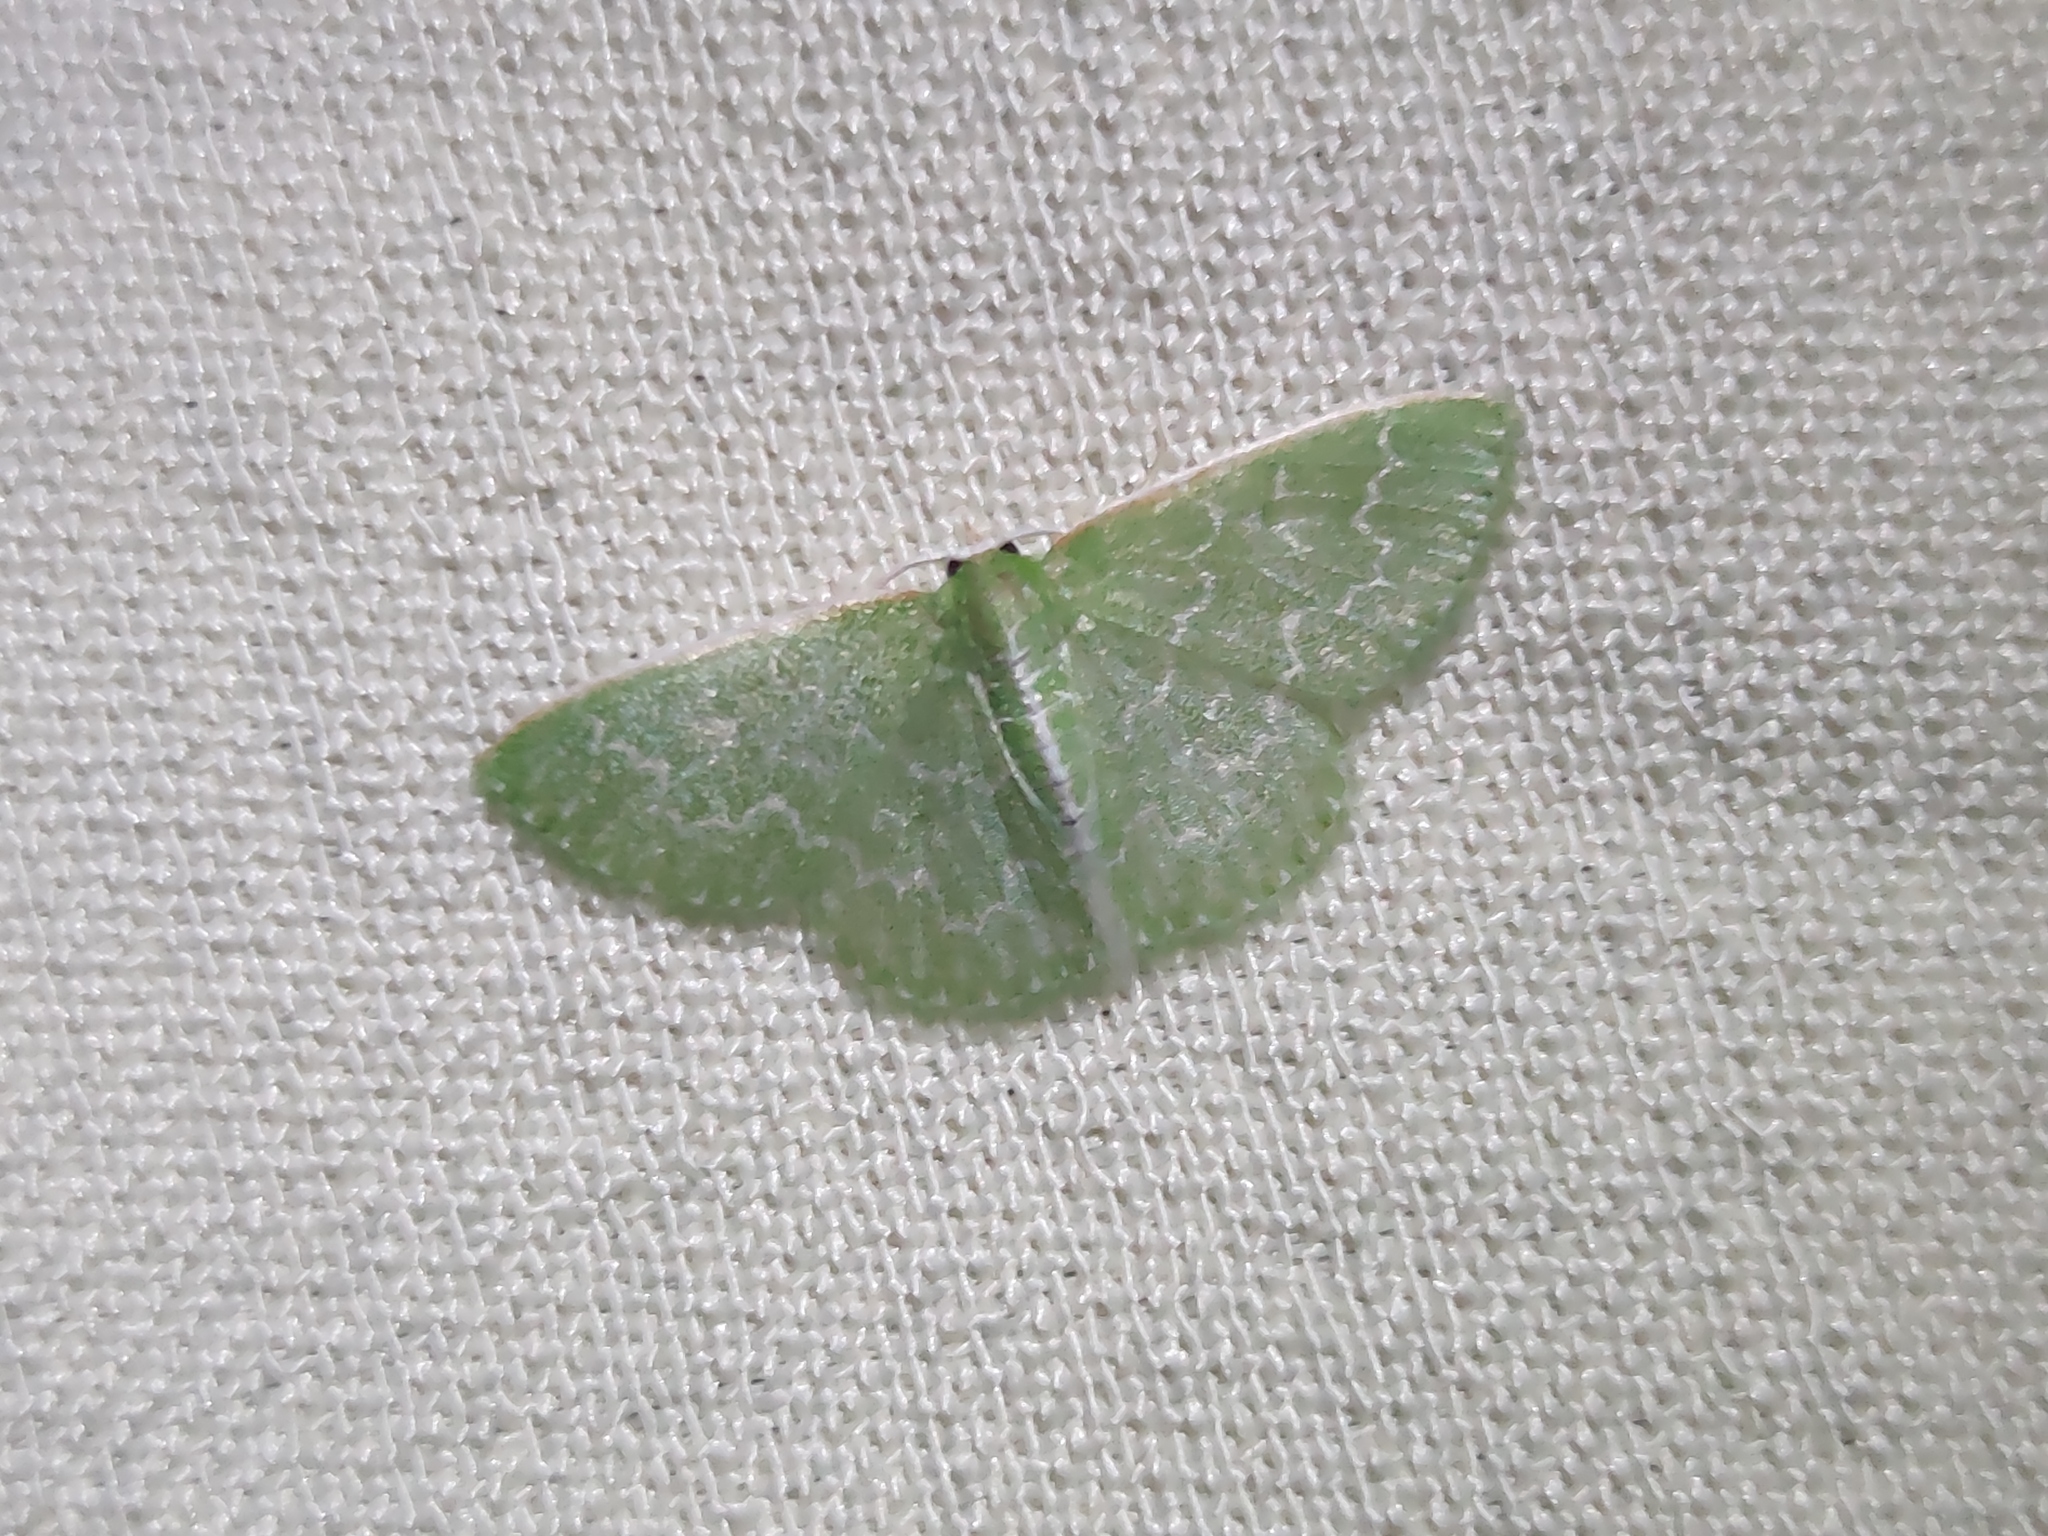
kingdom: Animalia
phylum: Arthropoda
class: Insecta
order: Lepidoptera
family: Geometridae
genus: Synchlora
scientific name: Synchlora frondaria
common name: Southern emerald
